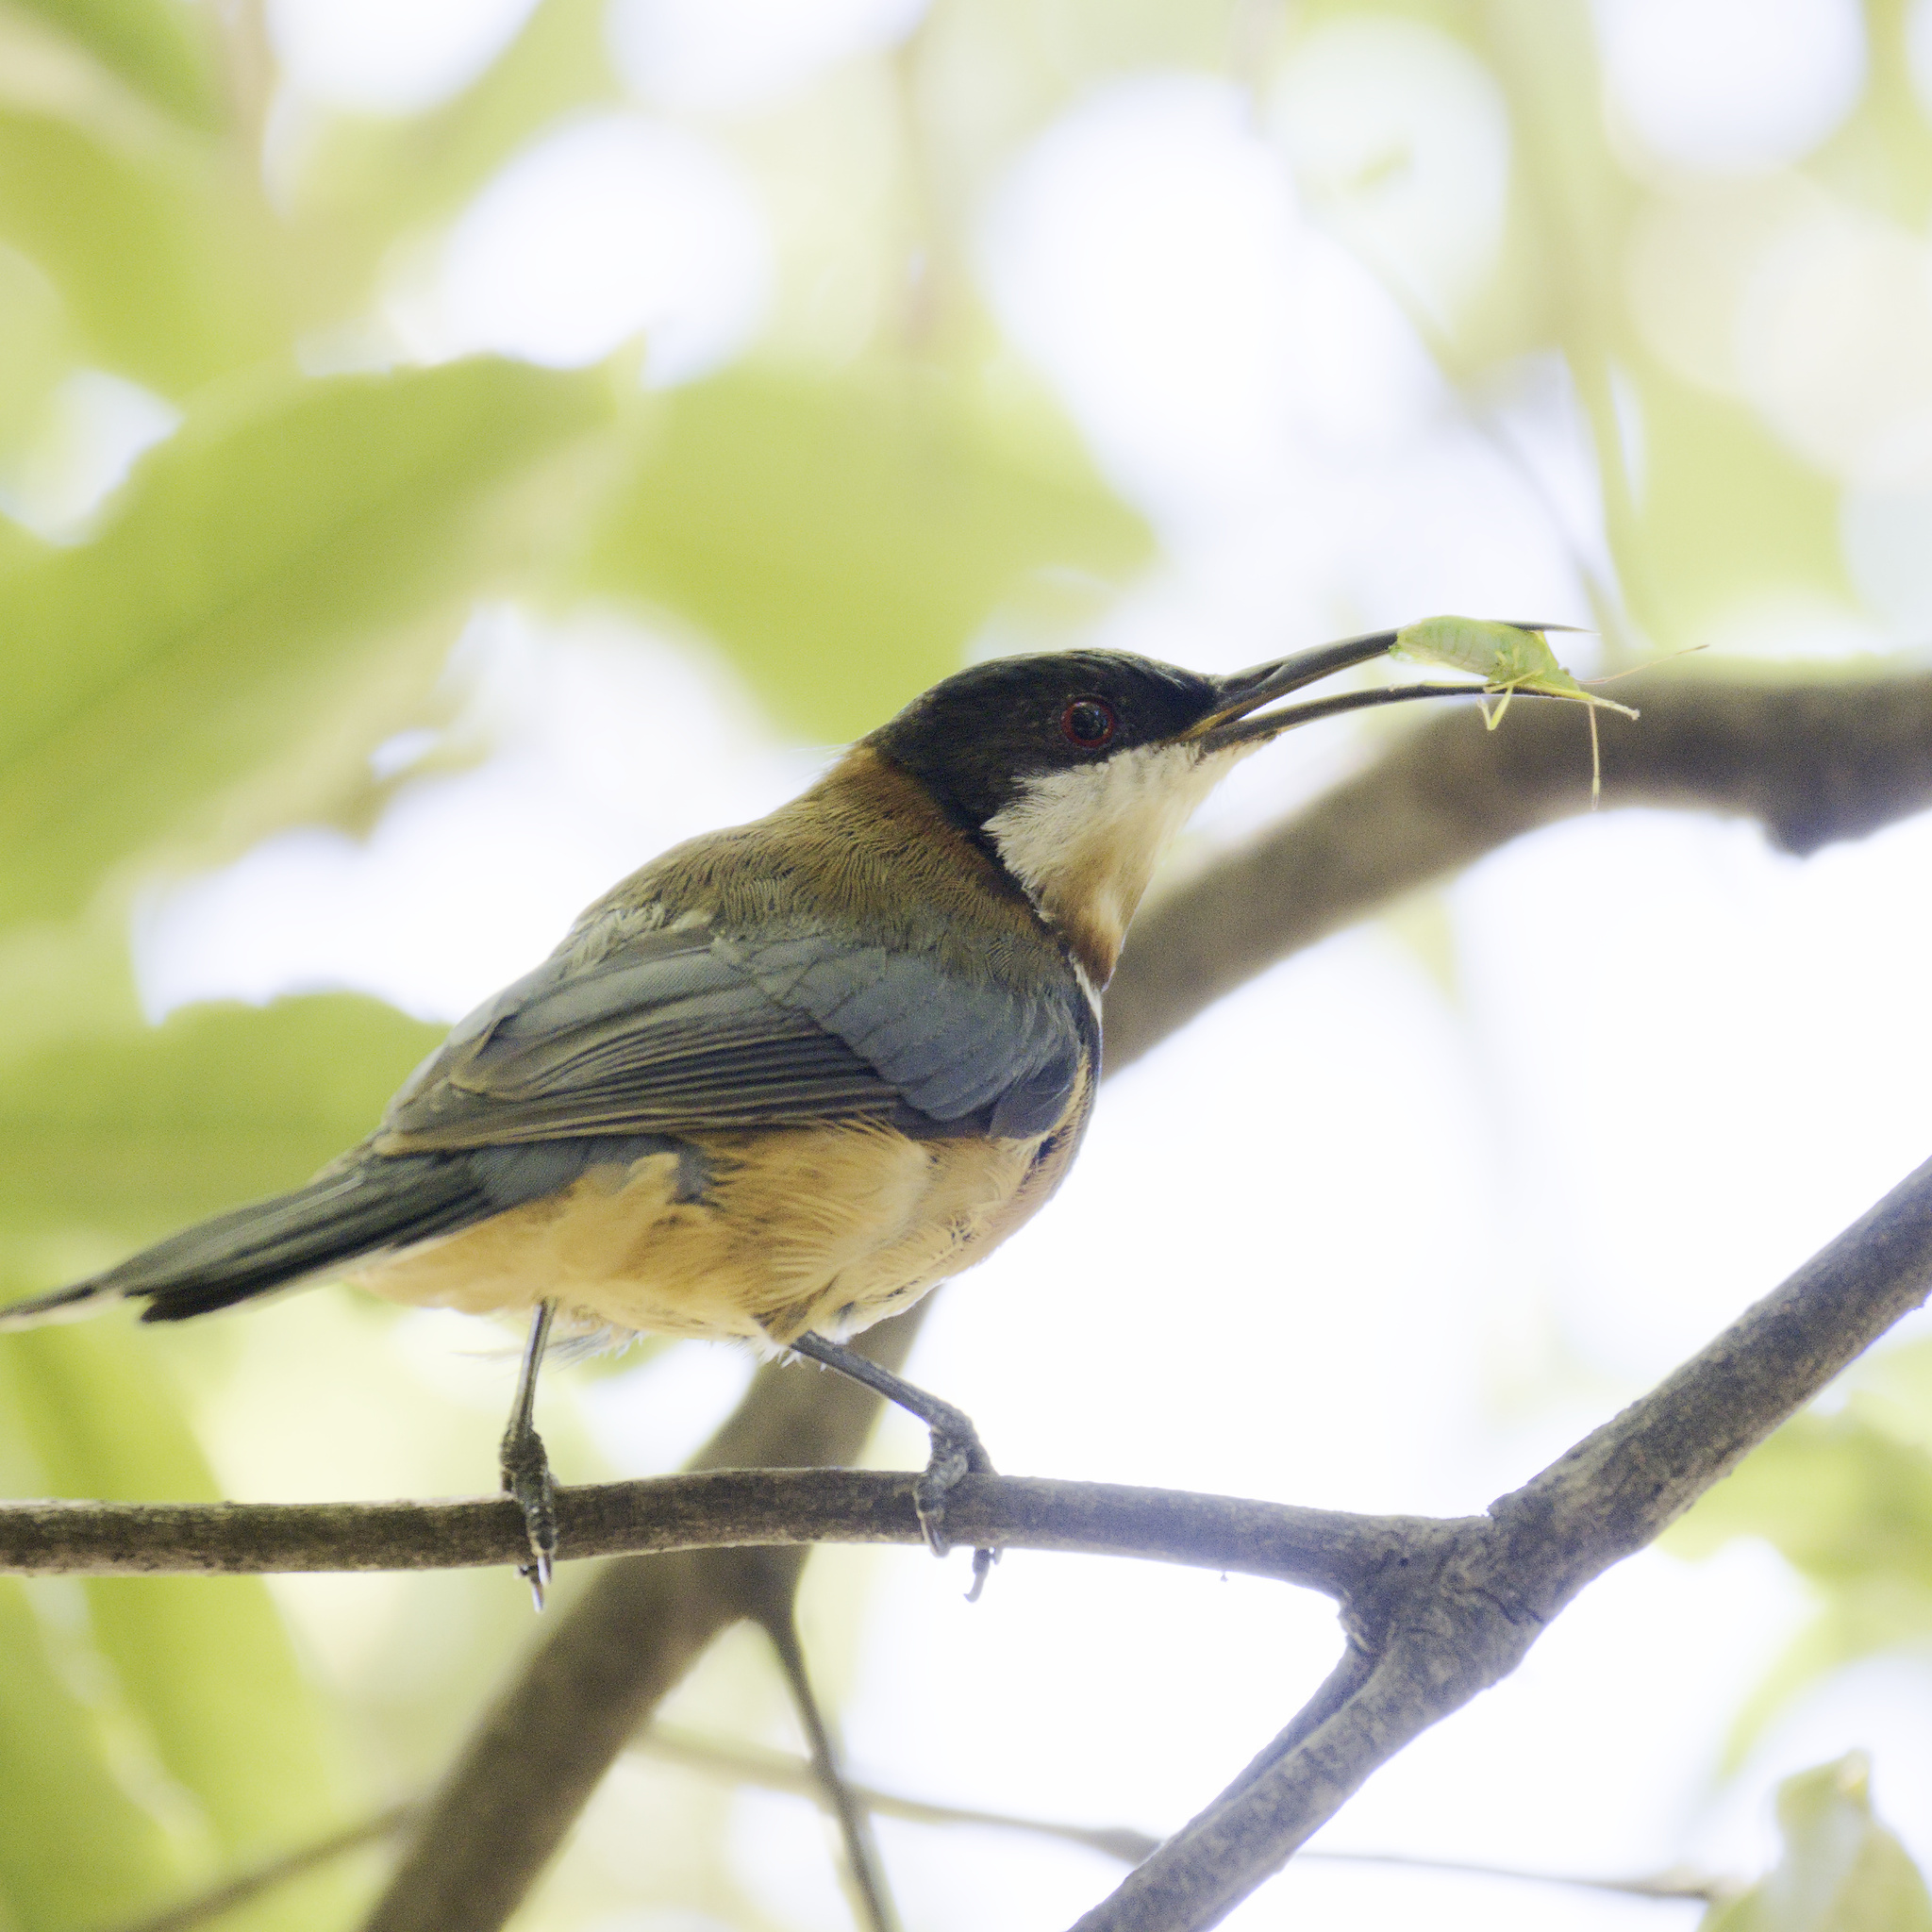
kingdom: Animalia
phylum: Arthropoda
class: Insecta
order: Hemiptera
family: Coreidae
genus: Amblypelta
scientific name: Amblypelta nitida
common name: Fruitspotting bug
